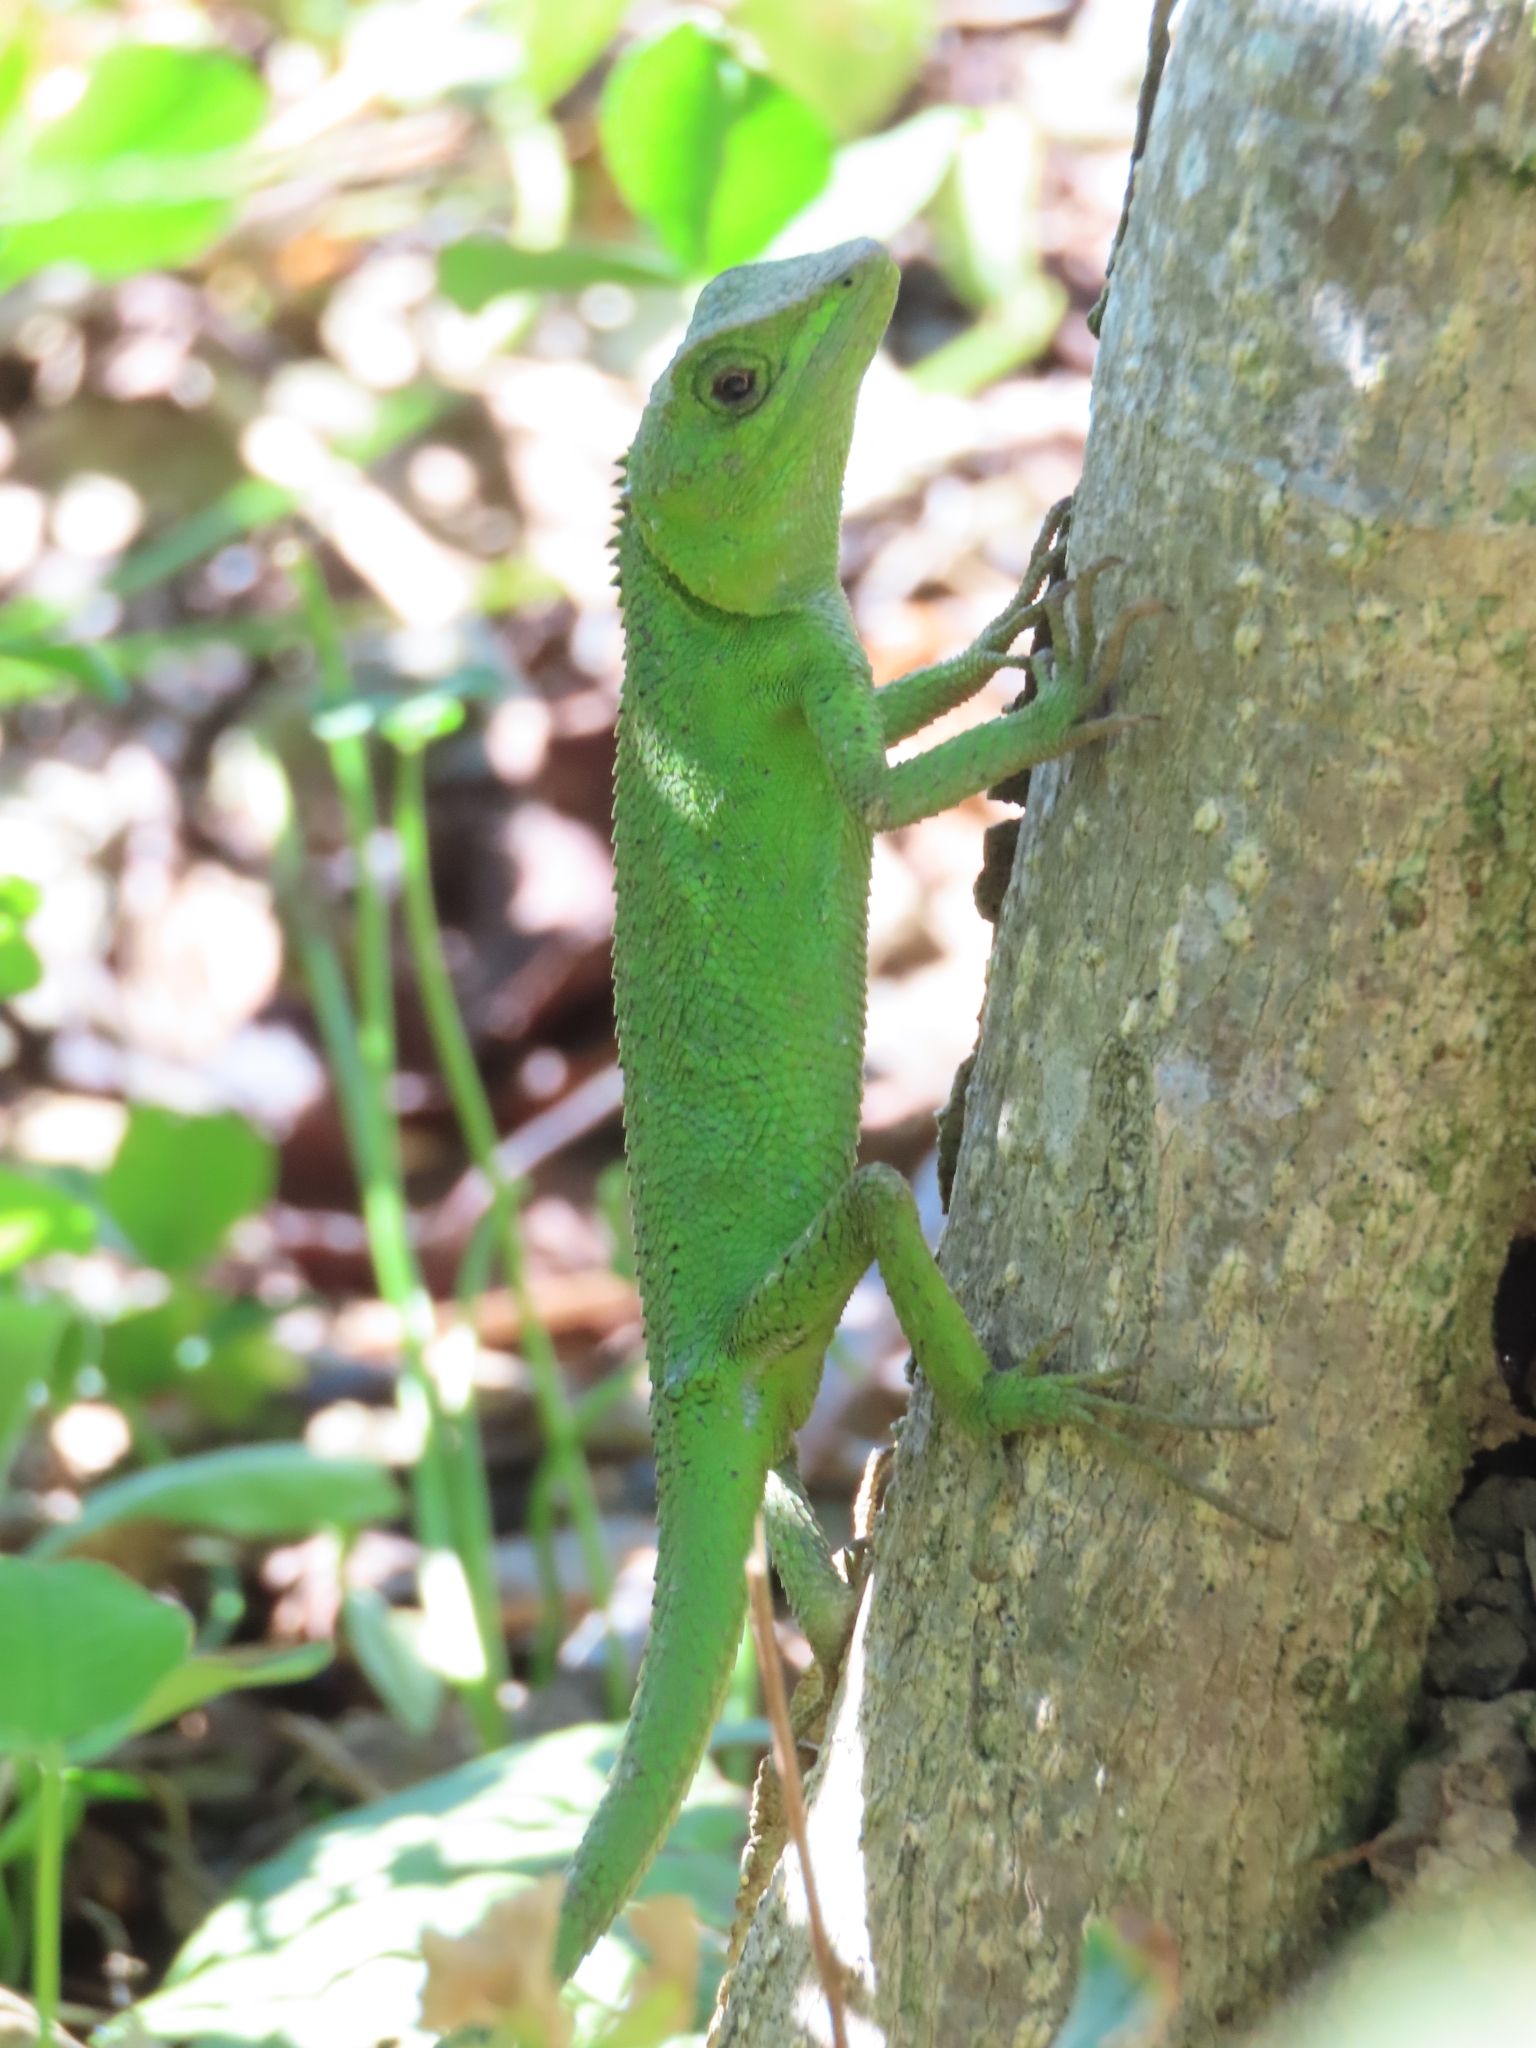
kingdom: Animalia
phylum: Chordata
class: Squamata
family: Agamidae
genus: Diploderma
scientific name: Diploderma brevipes
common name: Short-legged japalure
